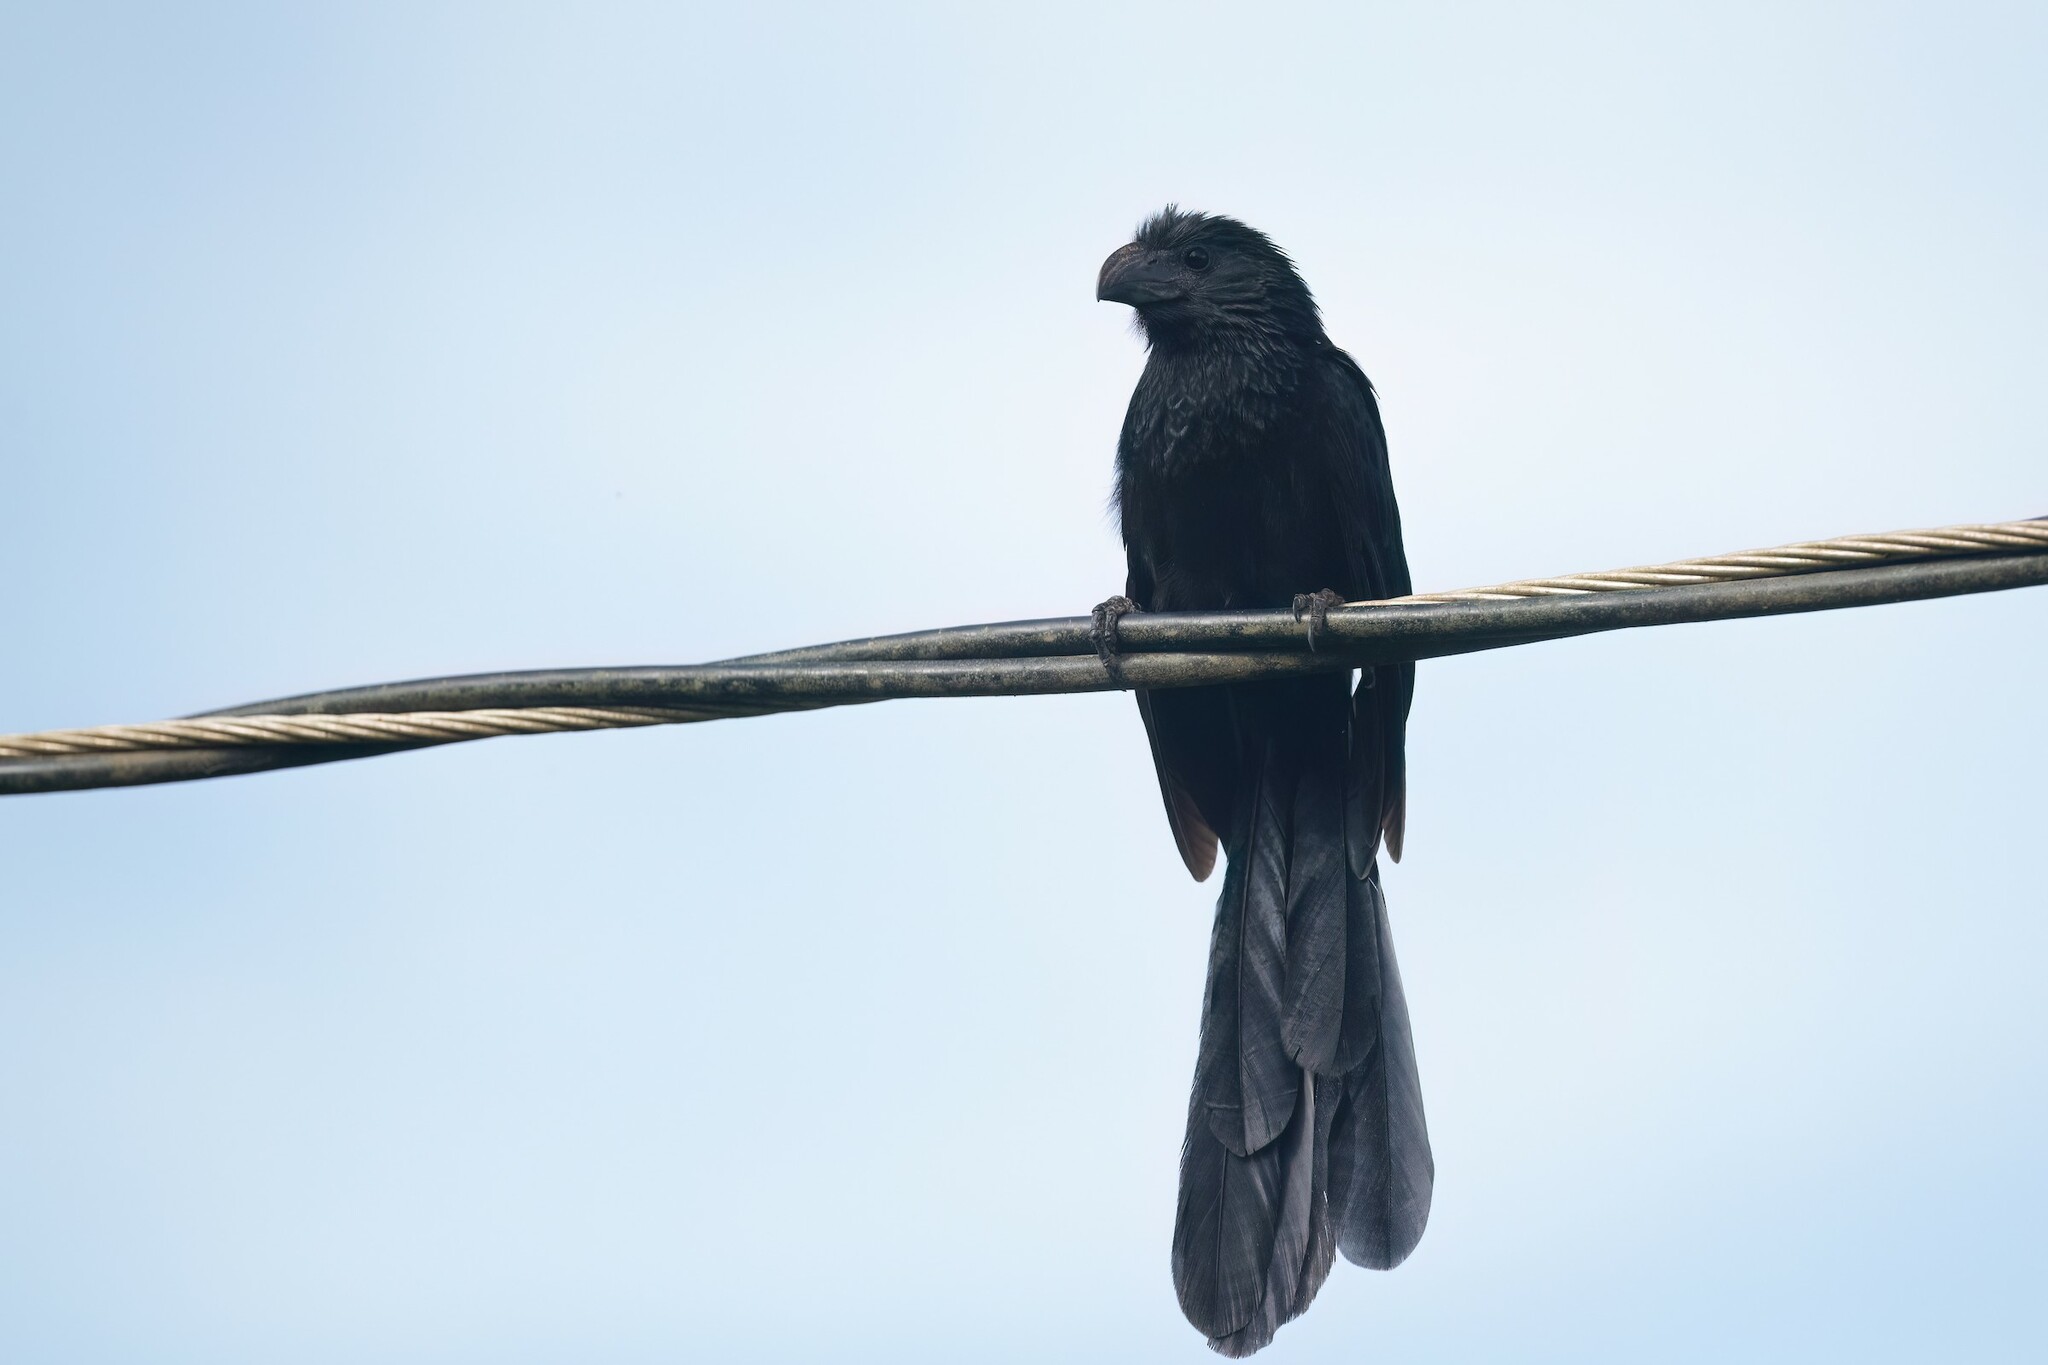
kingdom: Animalia
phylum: Chordata
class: Aves
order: Cuculiformes
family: Cuculidae
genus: Crotophaga
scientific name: Crotophaga sulcirostris
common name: Groove-billed ani
